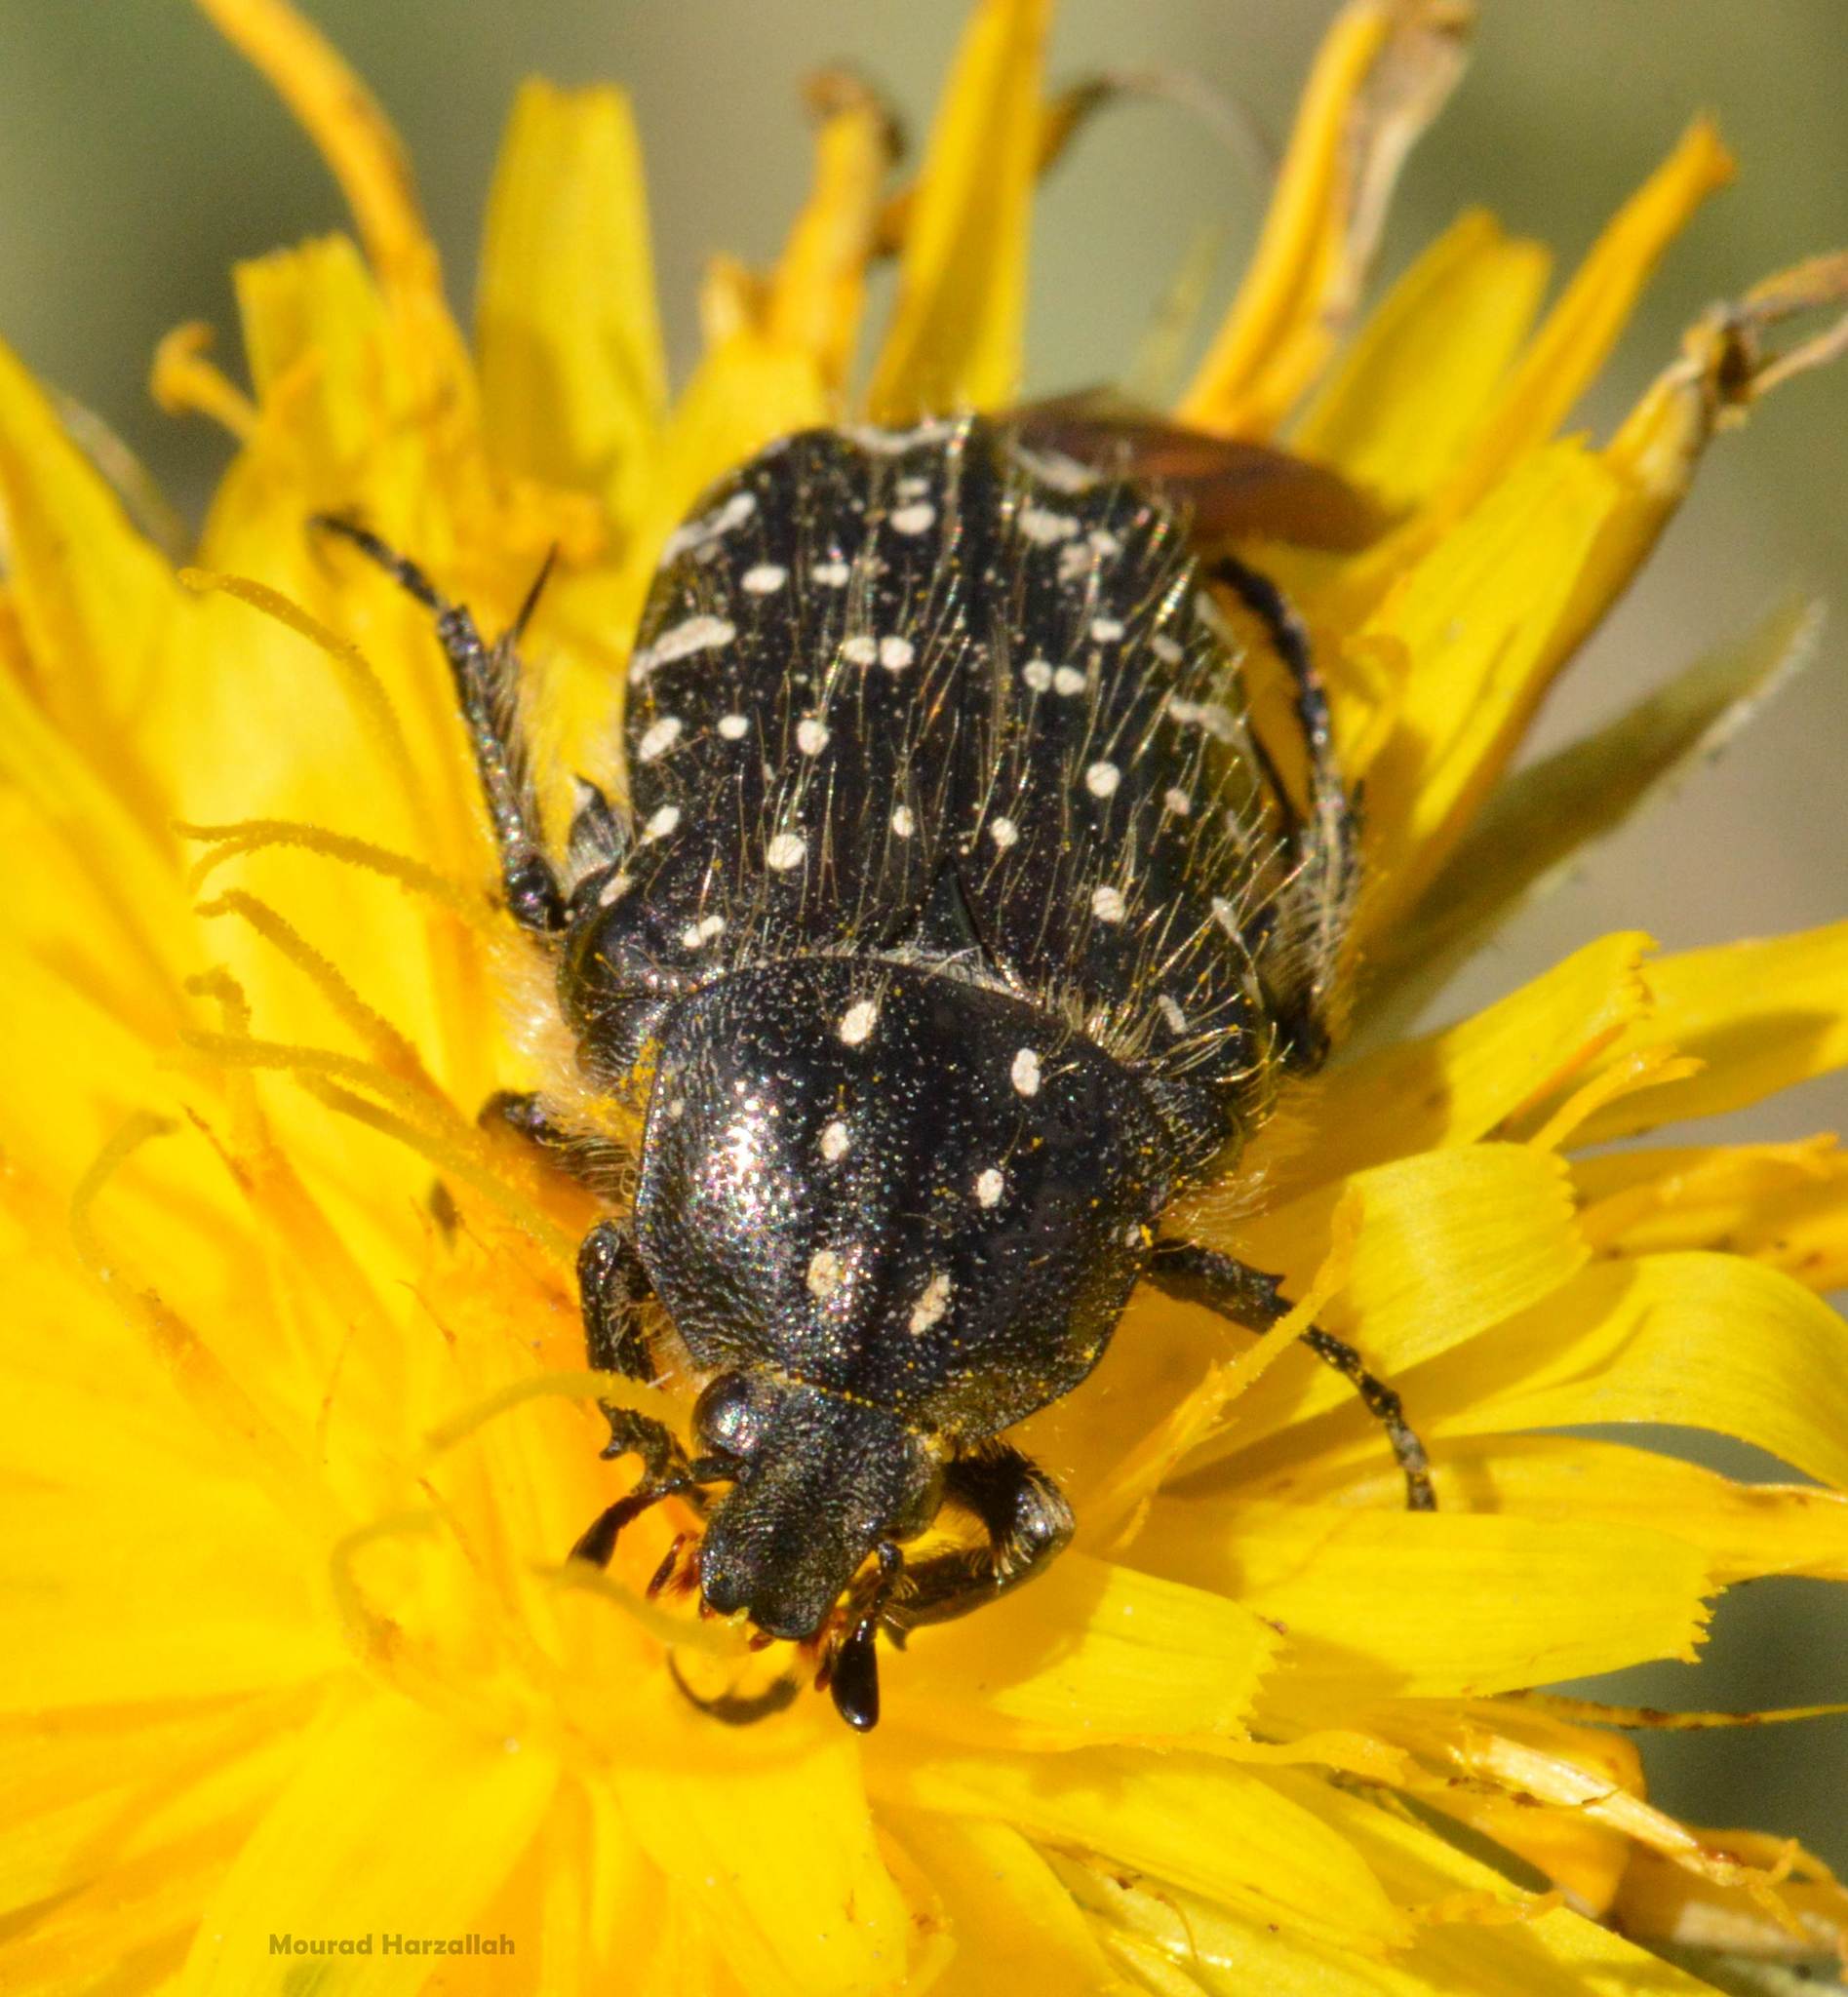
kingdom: Animalia
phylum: Arthropoda
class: Insecta
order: Coleoptera
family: Scarabaeidae
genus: Oxythyrea
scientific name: Oxythyrea funesta
